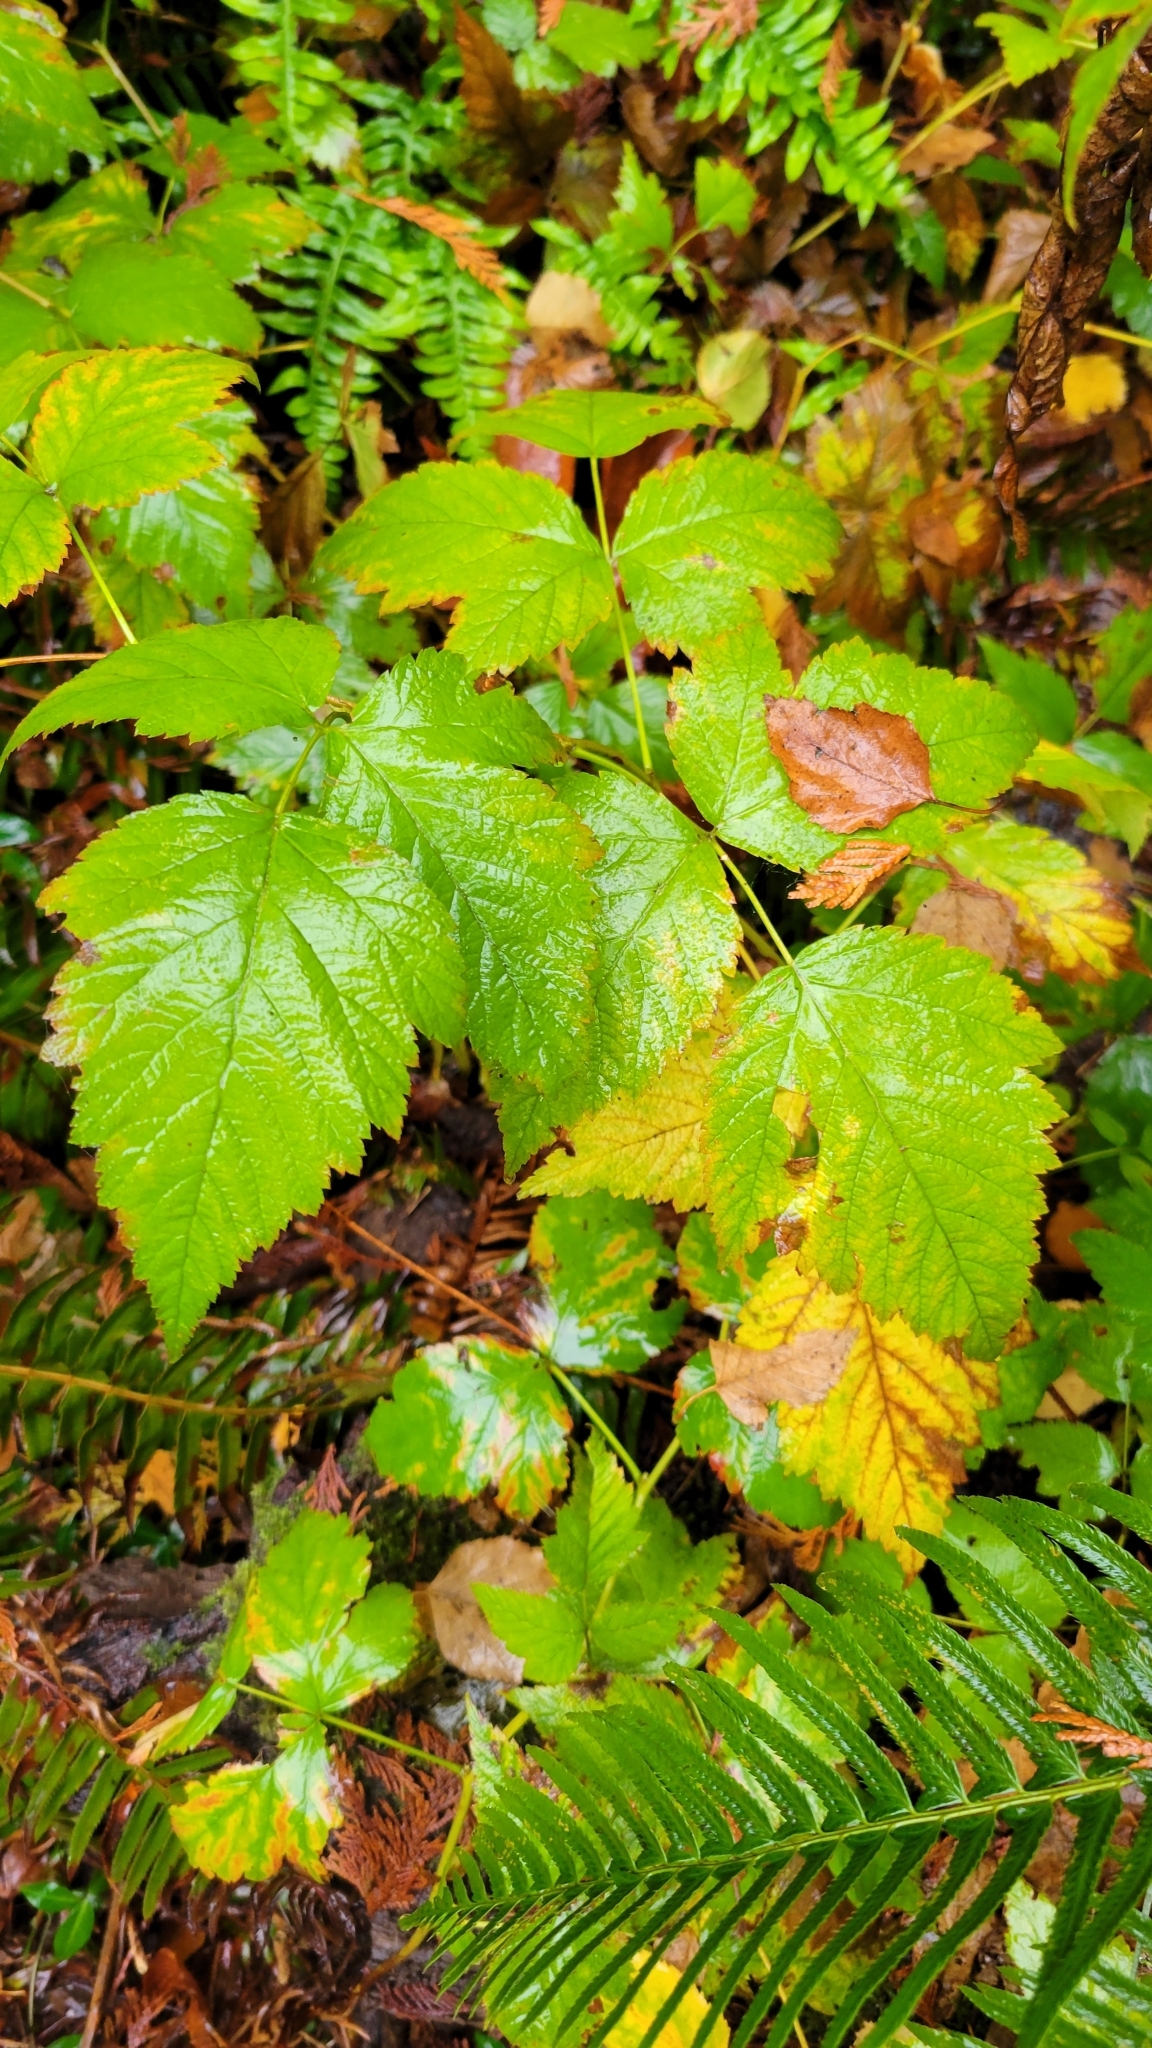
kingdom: Plantae
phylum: Tracheophyta
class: Magnoliopsida
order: Rosales
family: Rosaceae
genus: Rubus
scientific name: Rubus spectabilis
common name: Salmonberry
